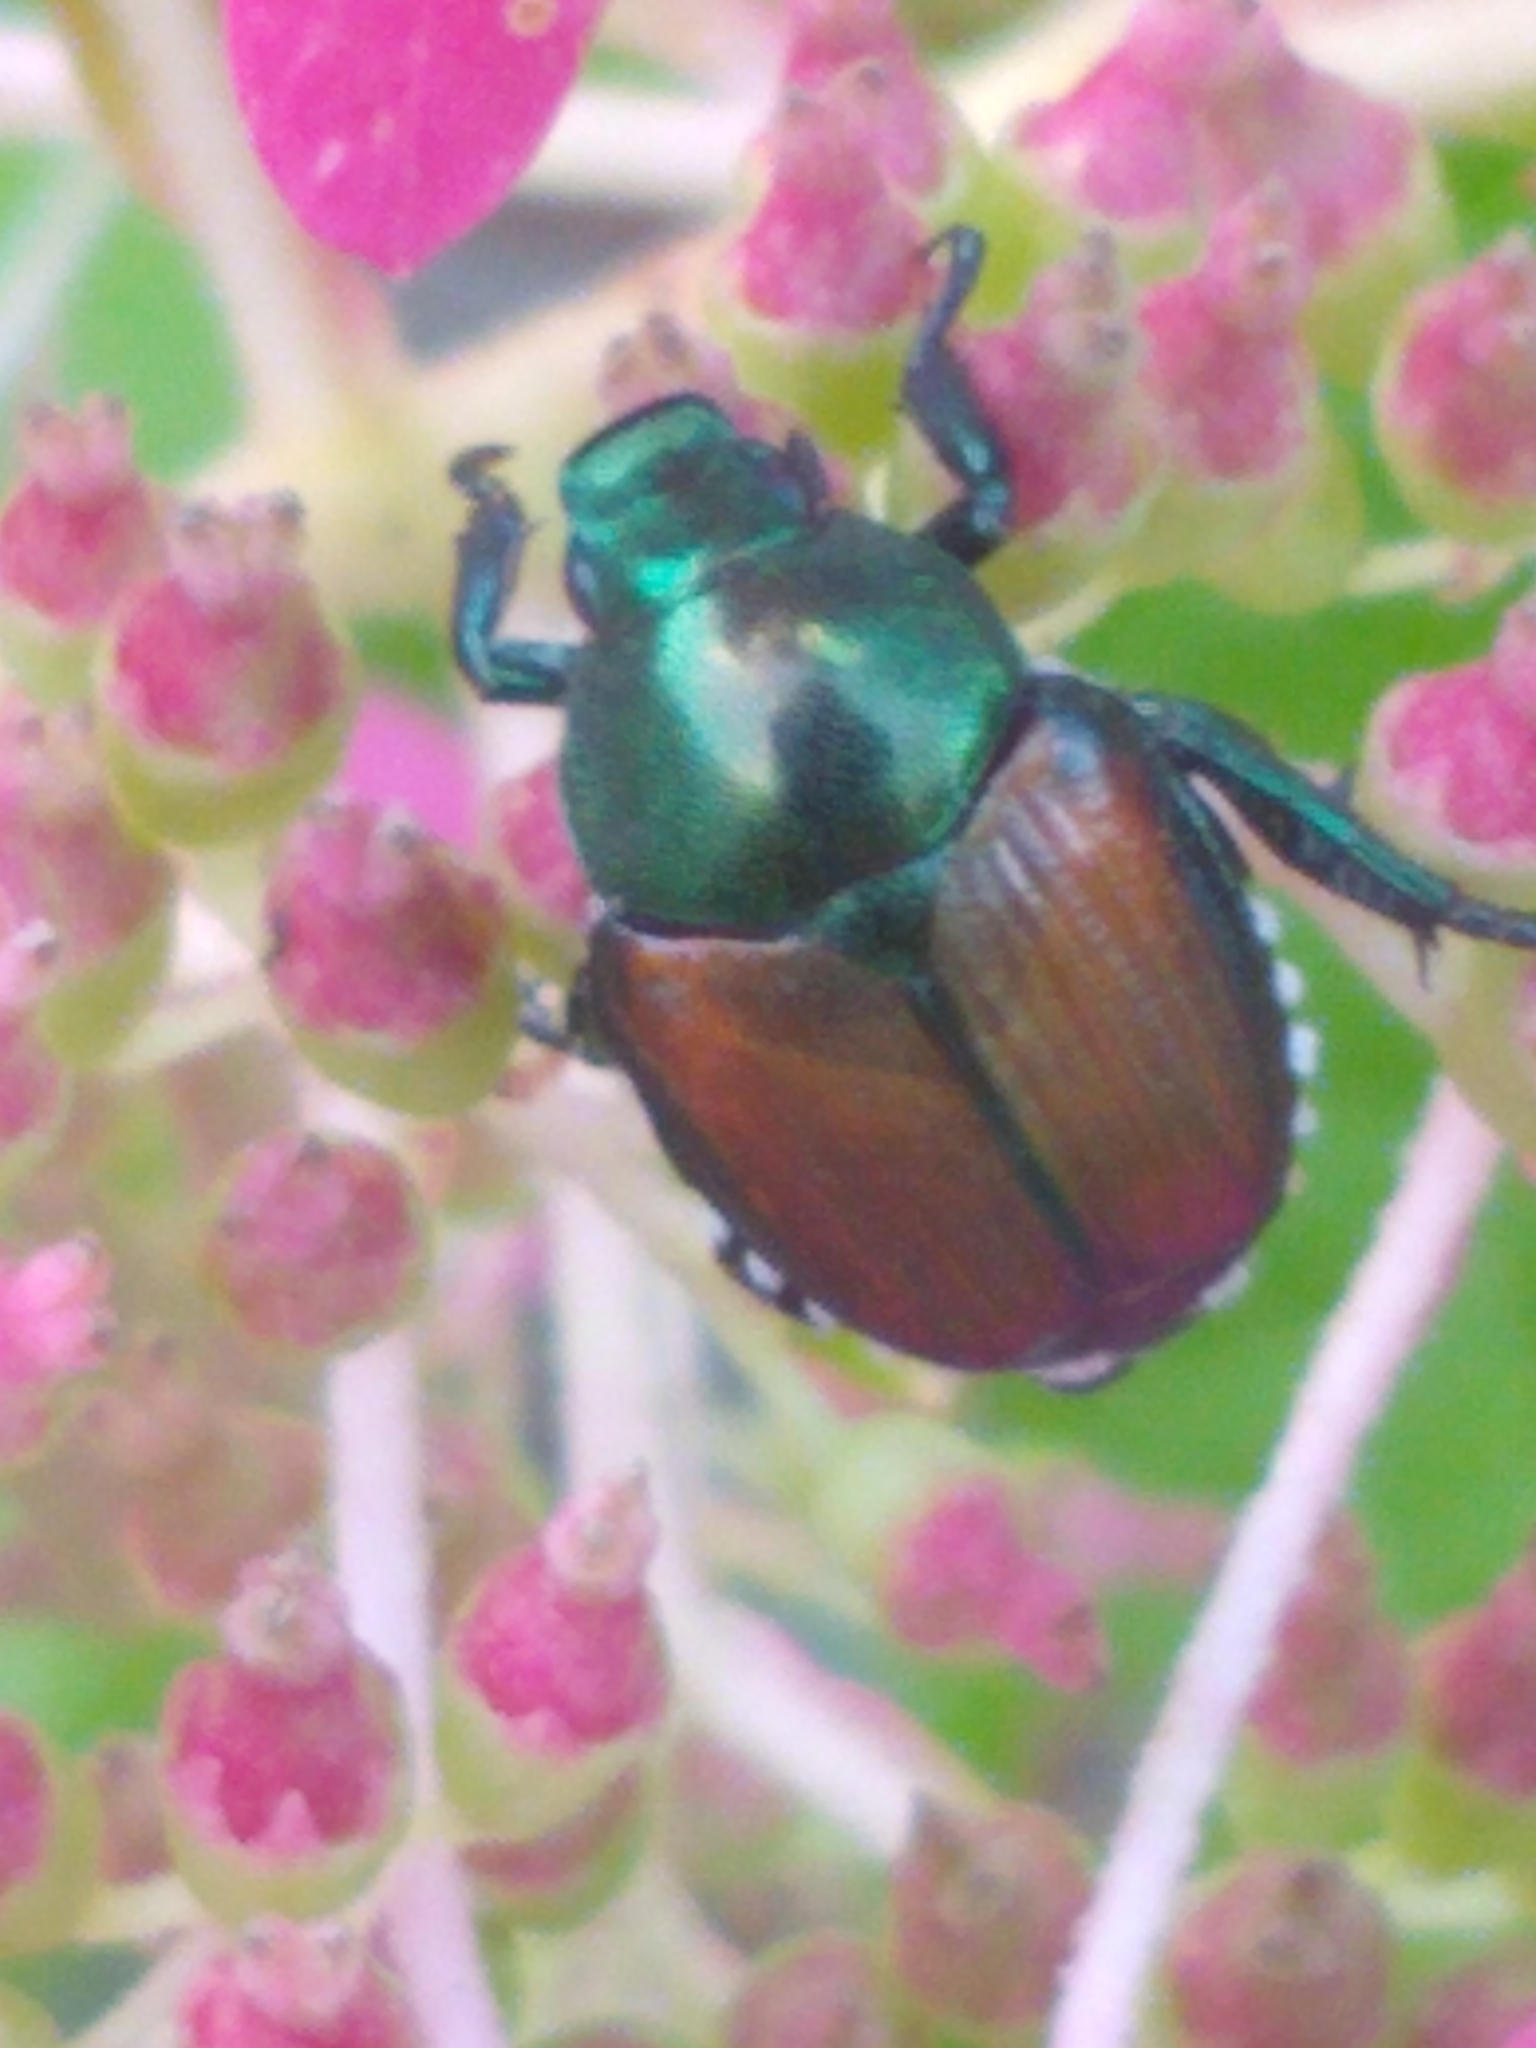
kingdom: Animalia
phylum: Arthropoda
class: Insecta
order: Coleoptera
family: Scarabaeidae
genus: Popillia
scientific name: Popillia japonica
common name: Japanese beetle
